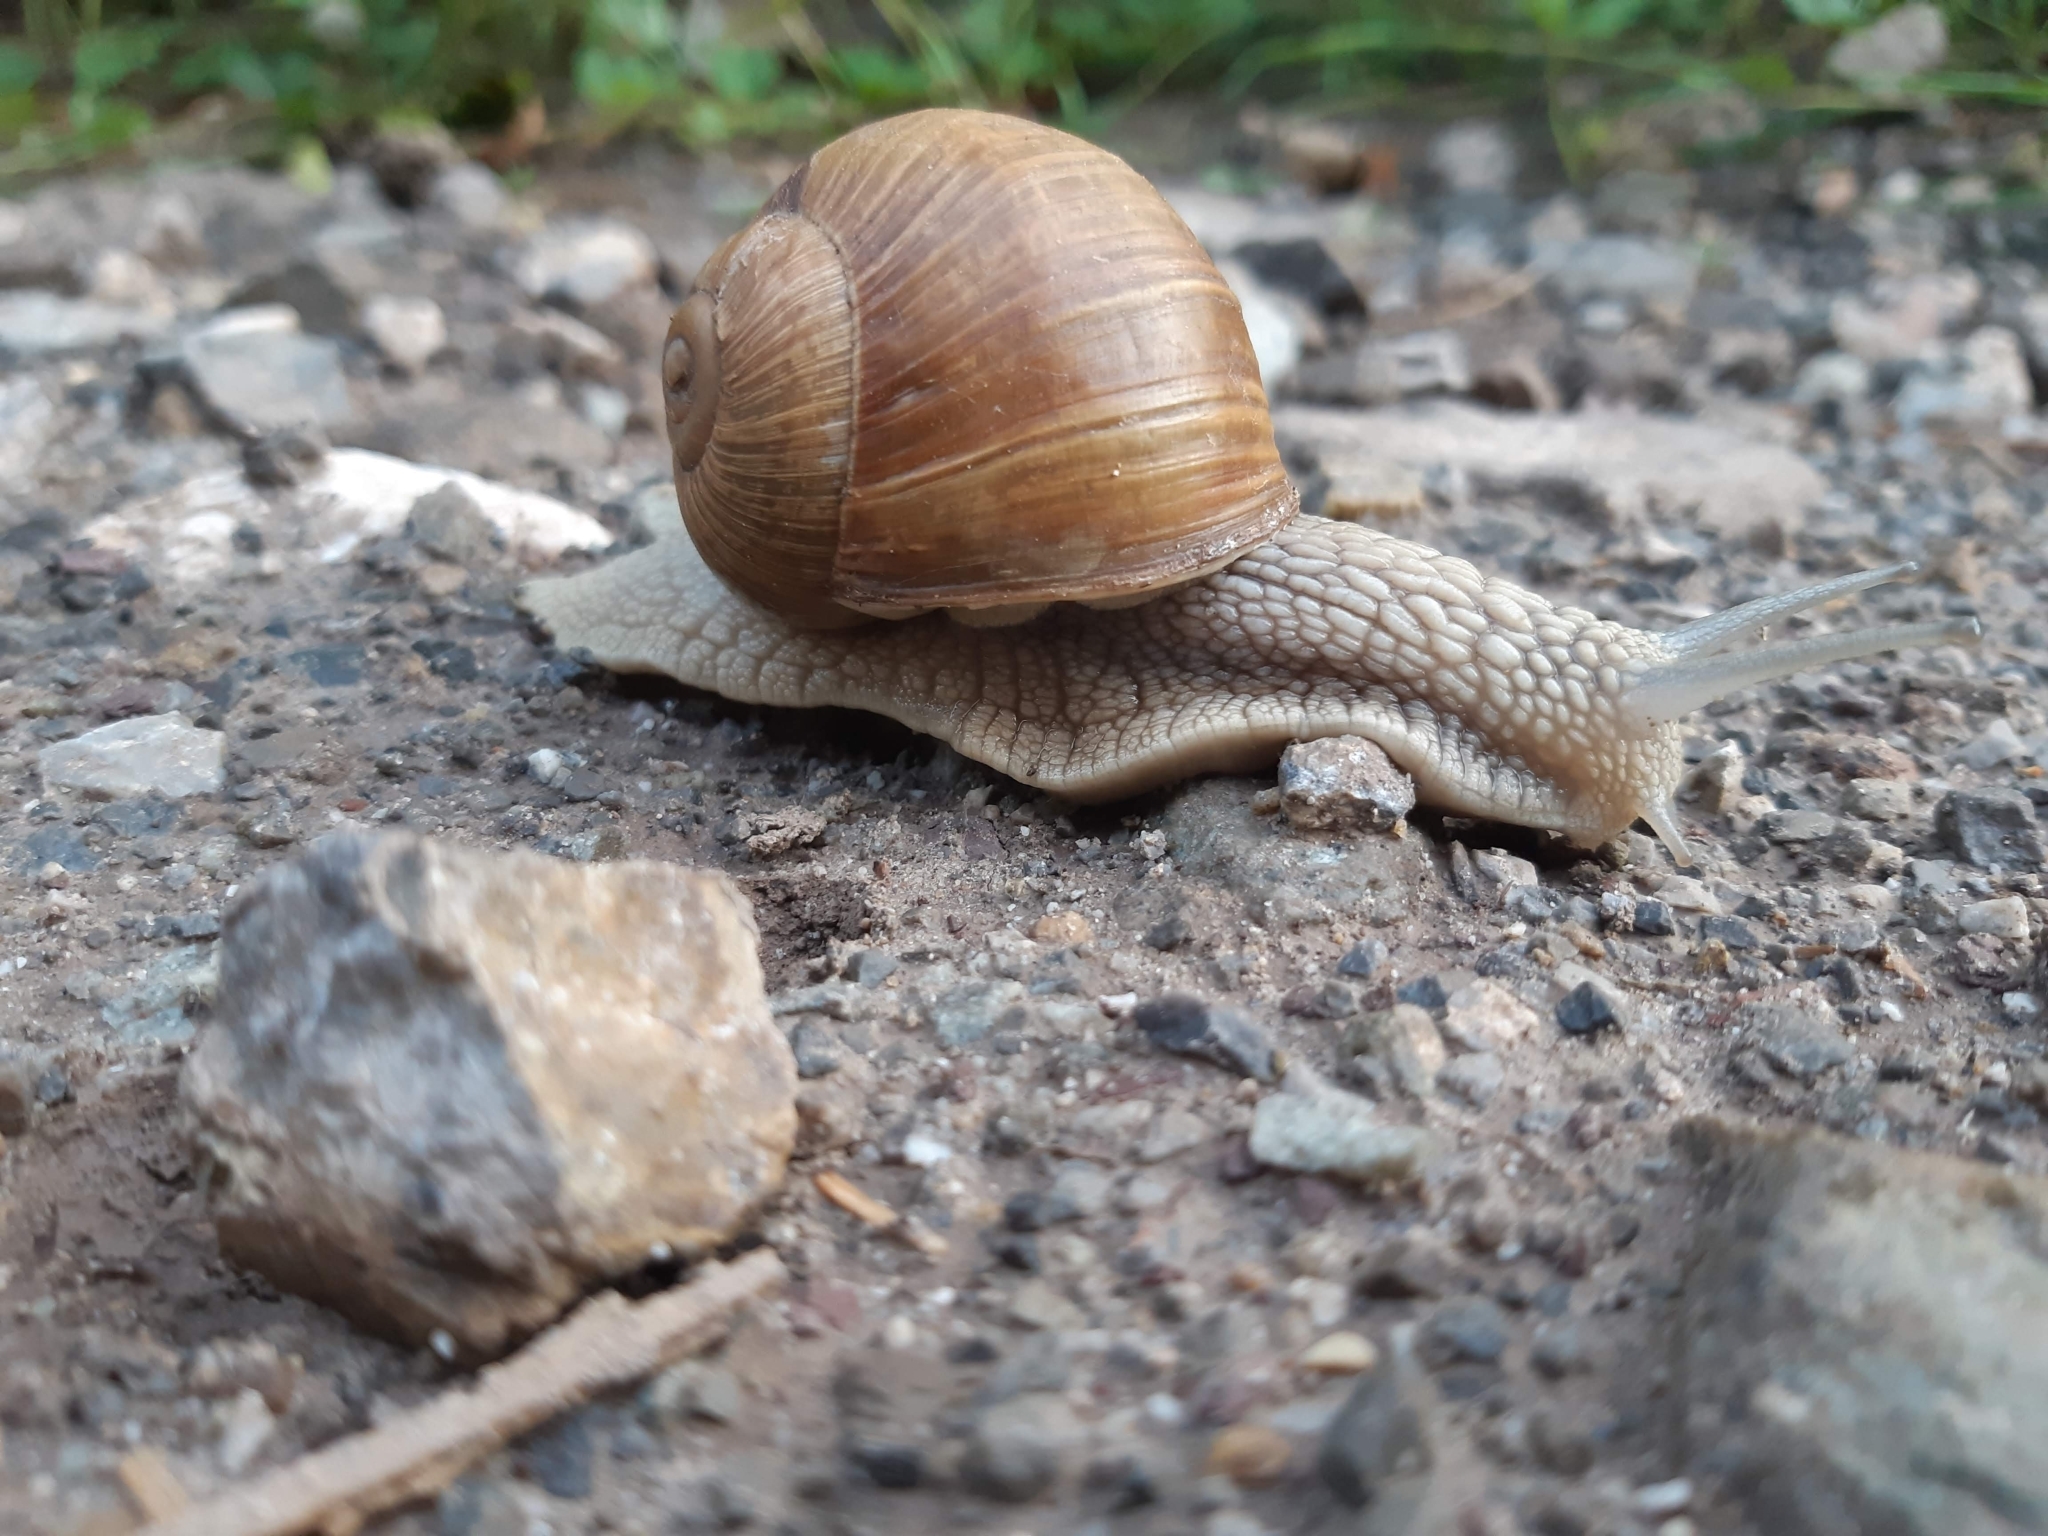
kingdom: Animalia
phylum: Mollusca
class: Gastropoda
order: Stylommatophora
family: Helicidae
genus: Helix
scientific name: Helix pomatia
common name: Roman snail
